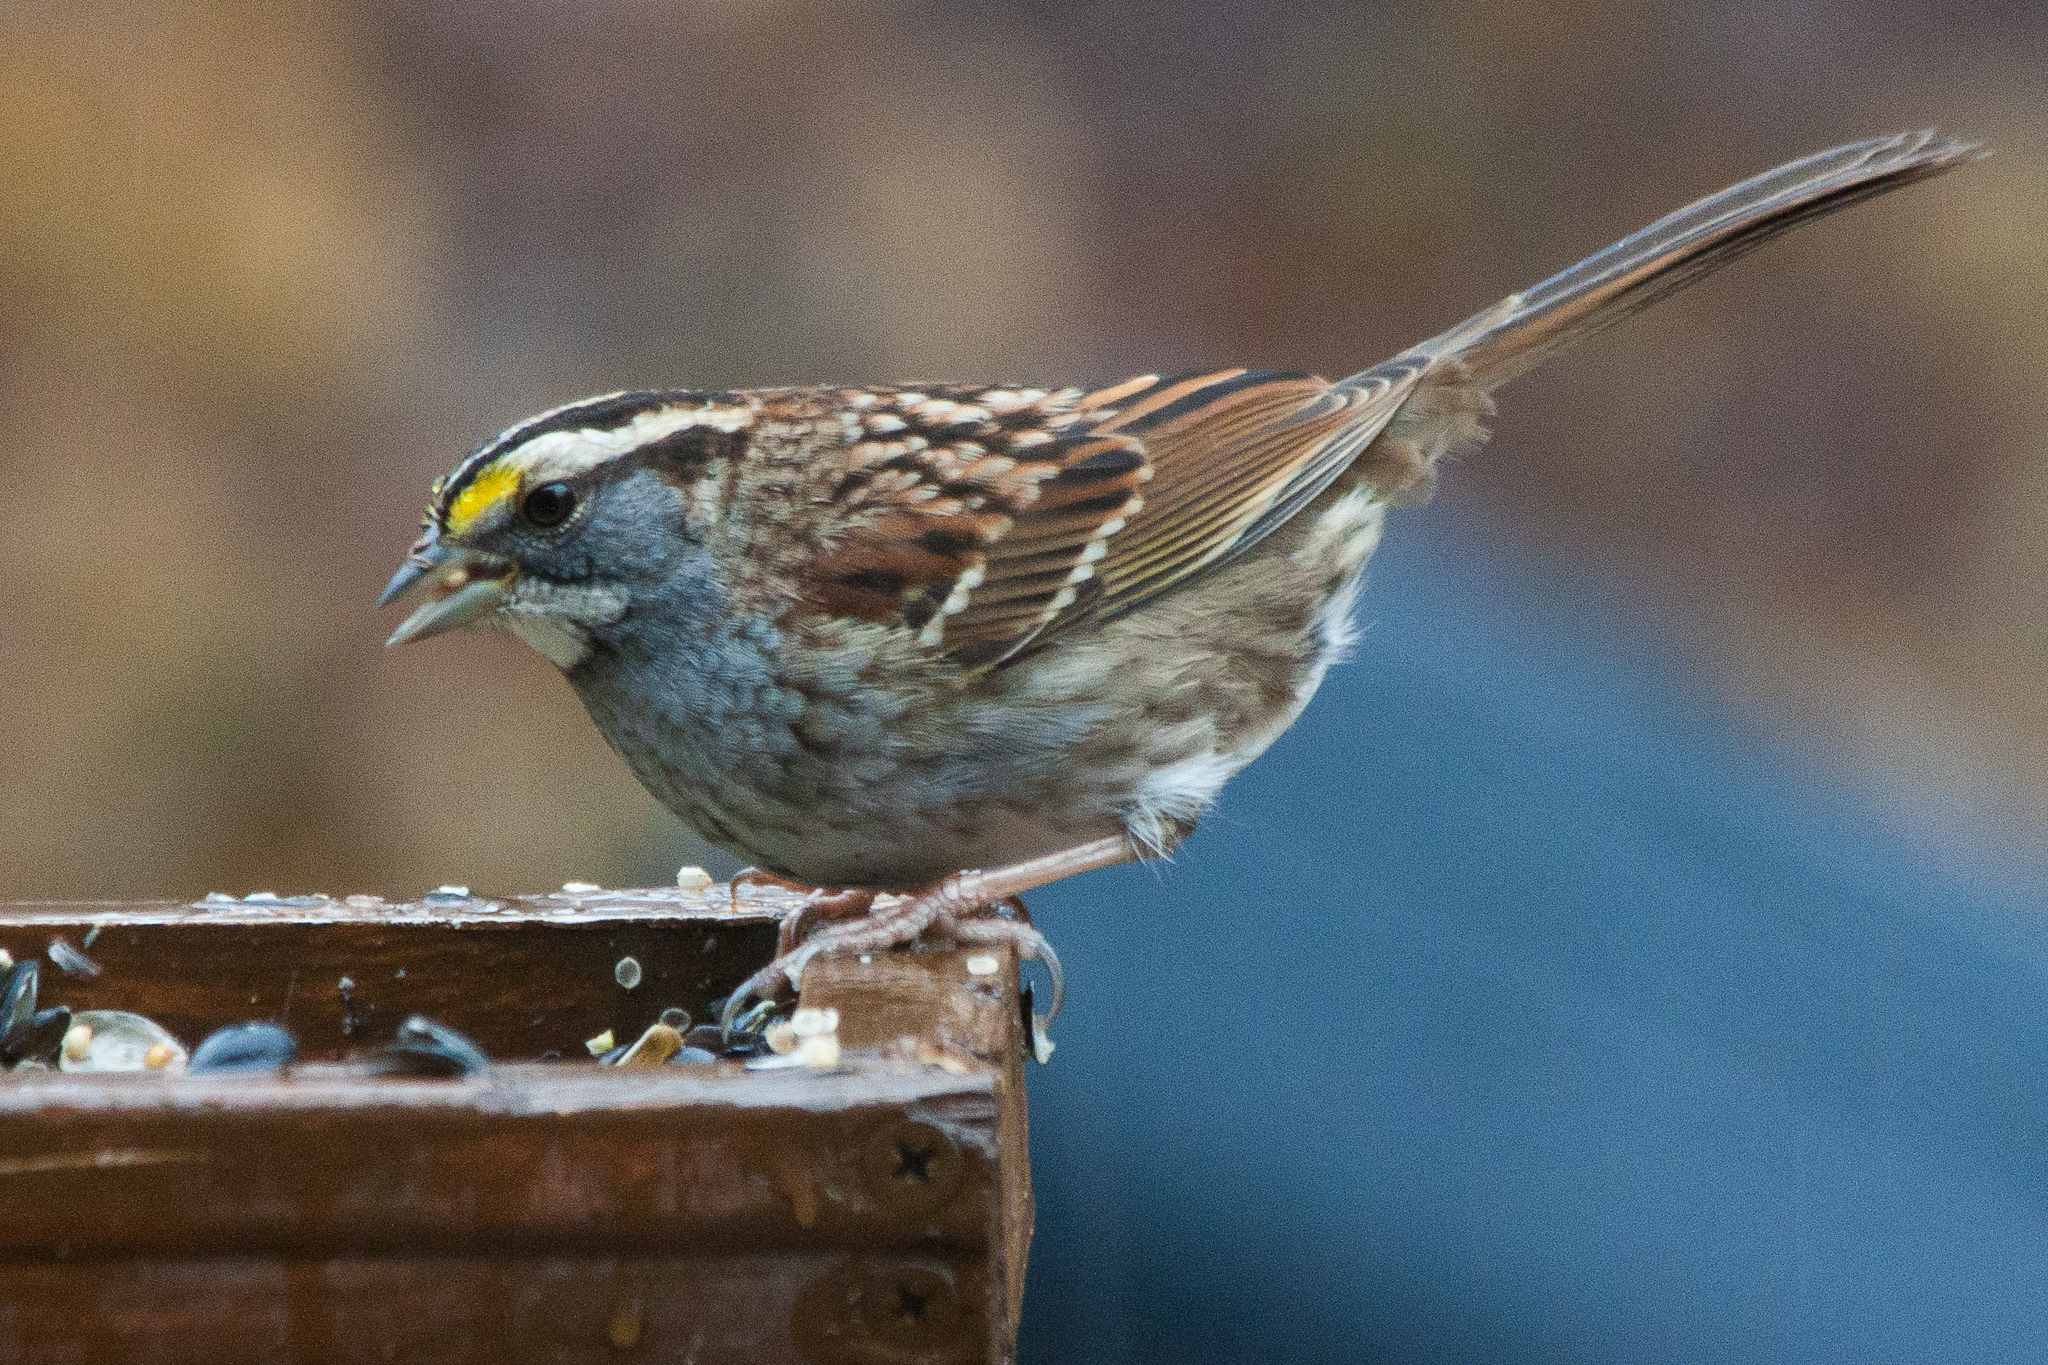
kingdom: Animalia
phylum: Chordata
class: Aves
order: Passeriformes
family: Passerellidae
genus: Zonotrichia
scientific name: Zonotrichia albicollis
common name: White-throated sparrow
